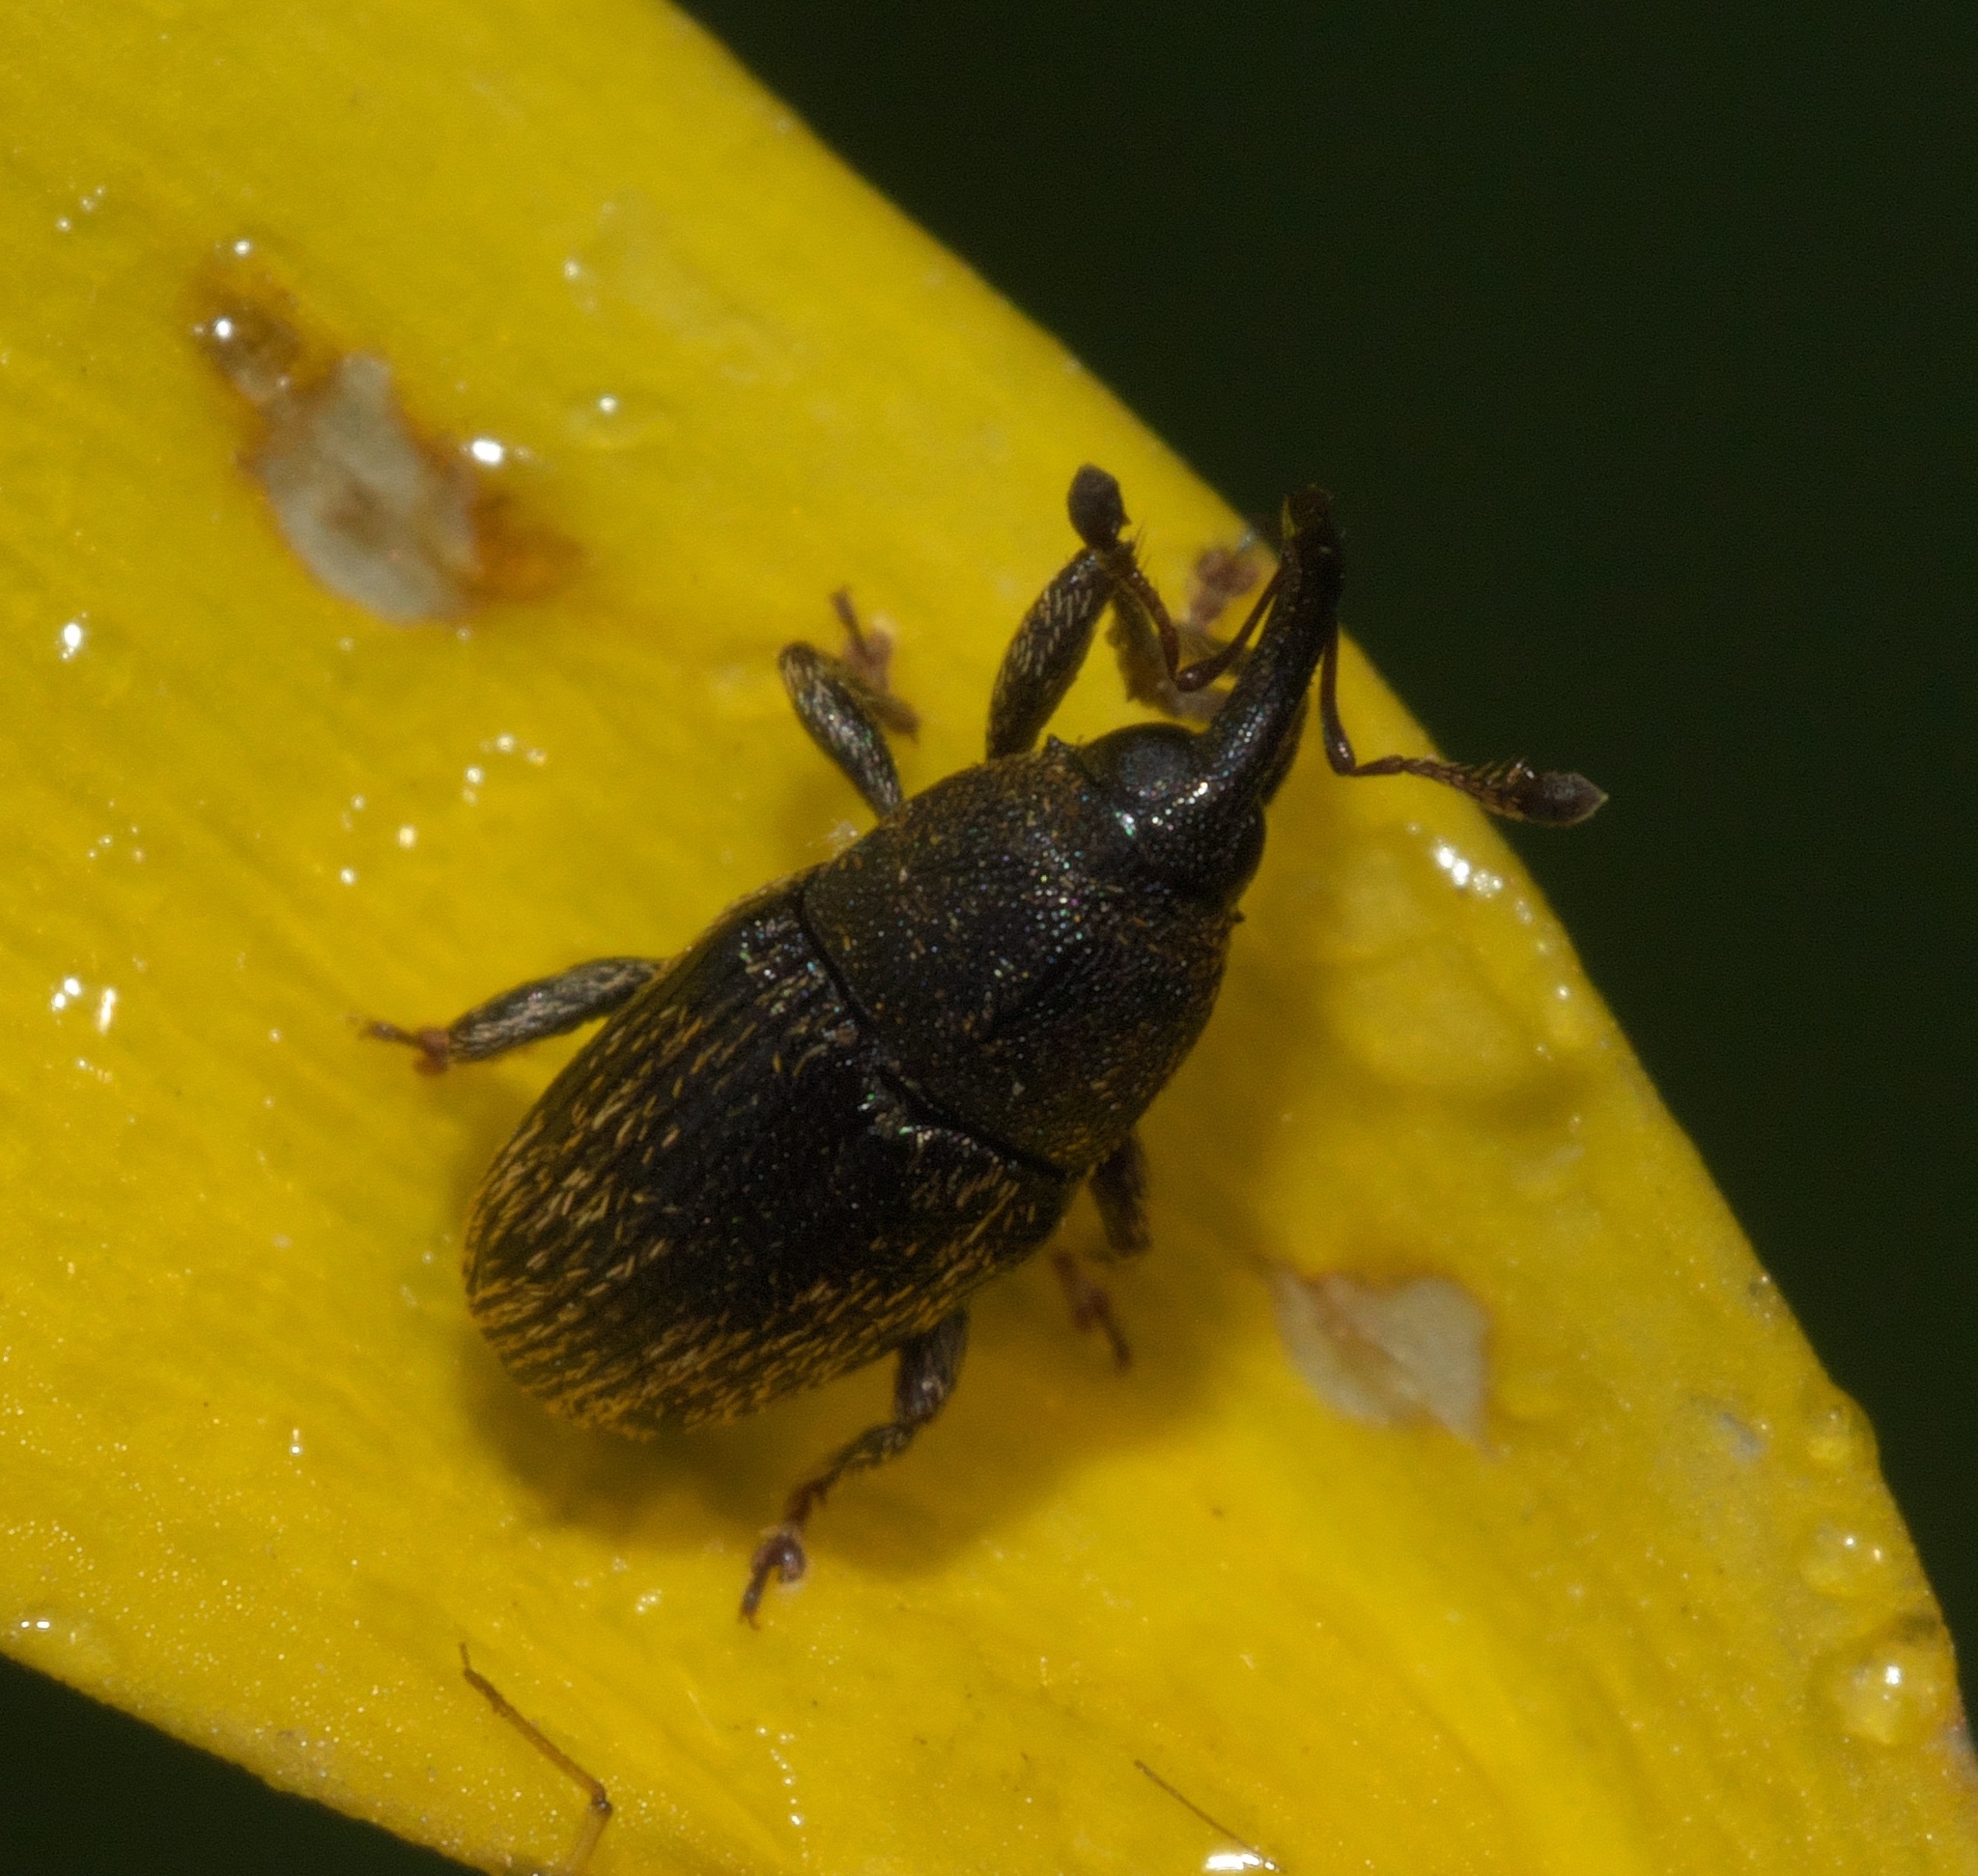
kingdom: Animalia
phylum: Arthropoda
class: Insecta
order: Coleoptera
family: Curculionidae
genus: Odontocorynus
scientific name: Odontocorynus falsus
